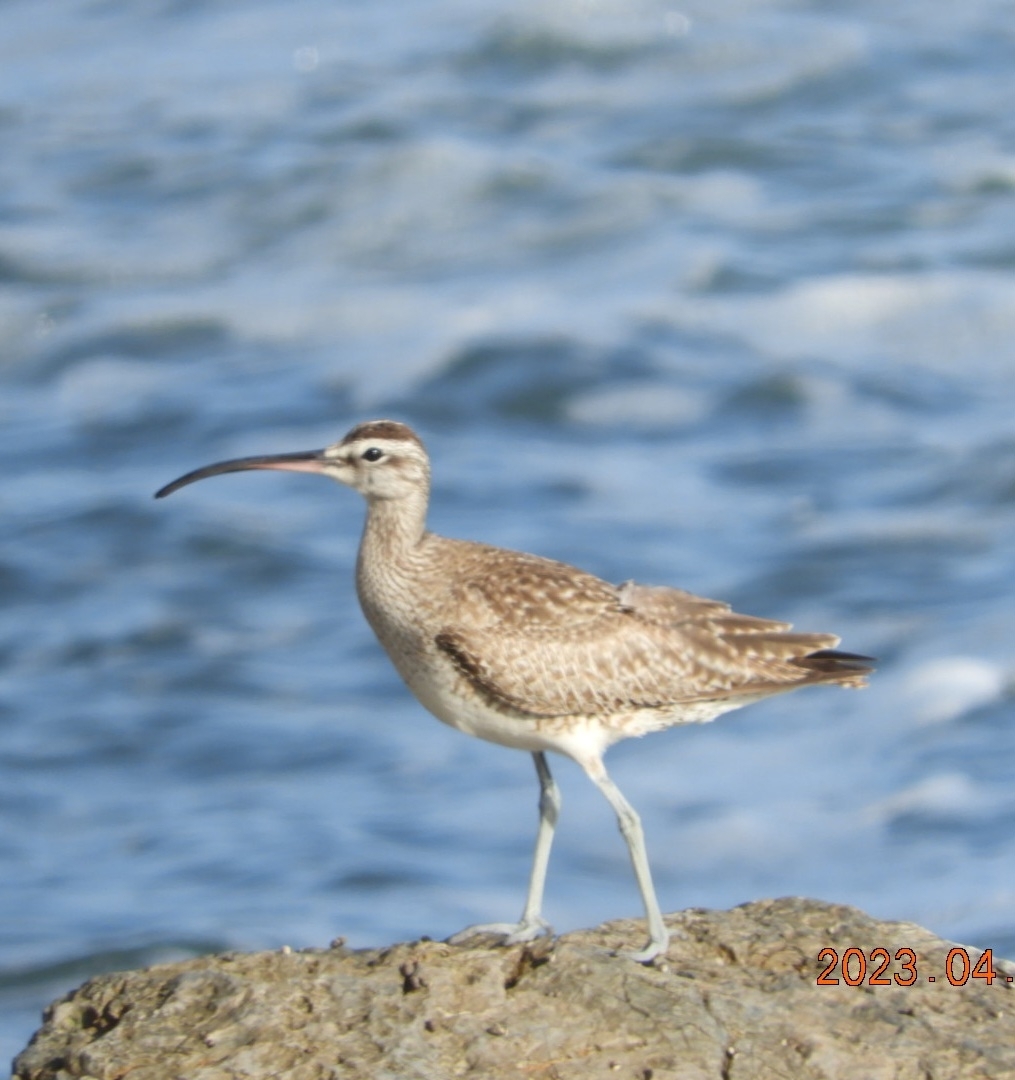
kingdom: Animalia
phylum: Chordata
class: Aves
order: Charadriiformes
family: Scolopacidae
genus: Numenius
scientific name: Numenius phaeopus
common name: Whimbrel
